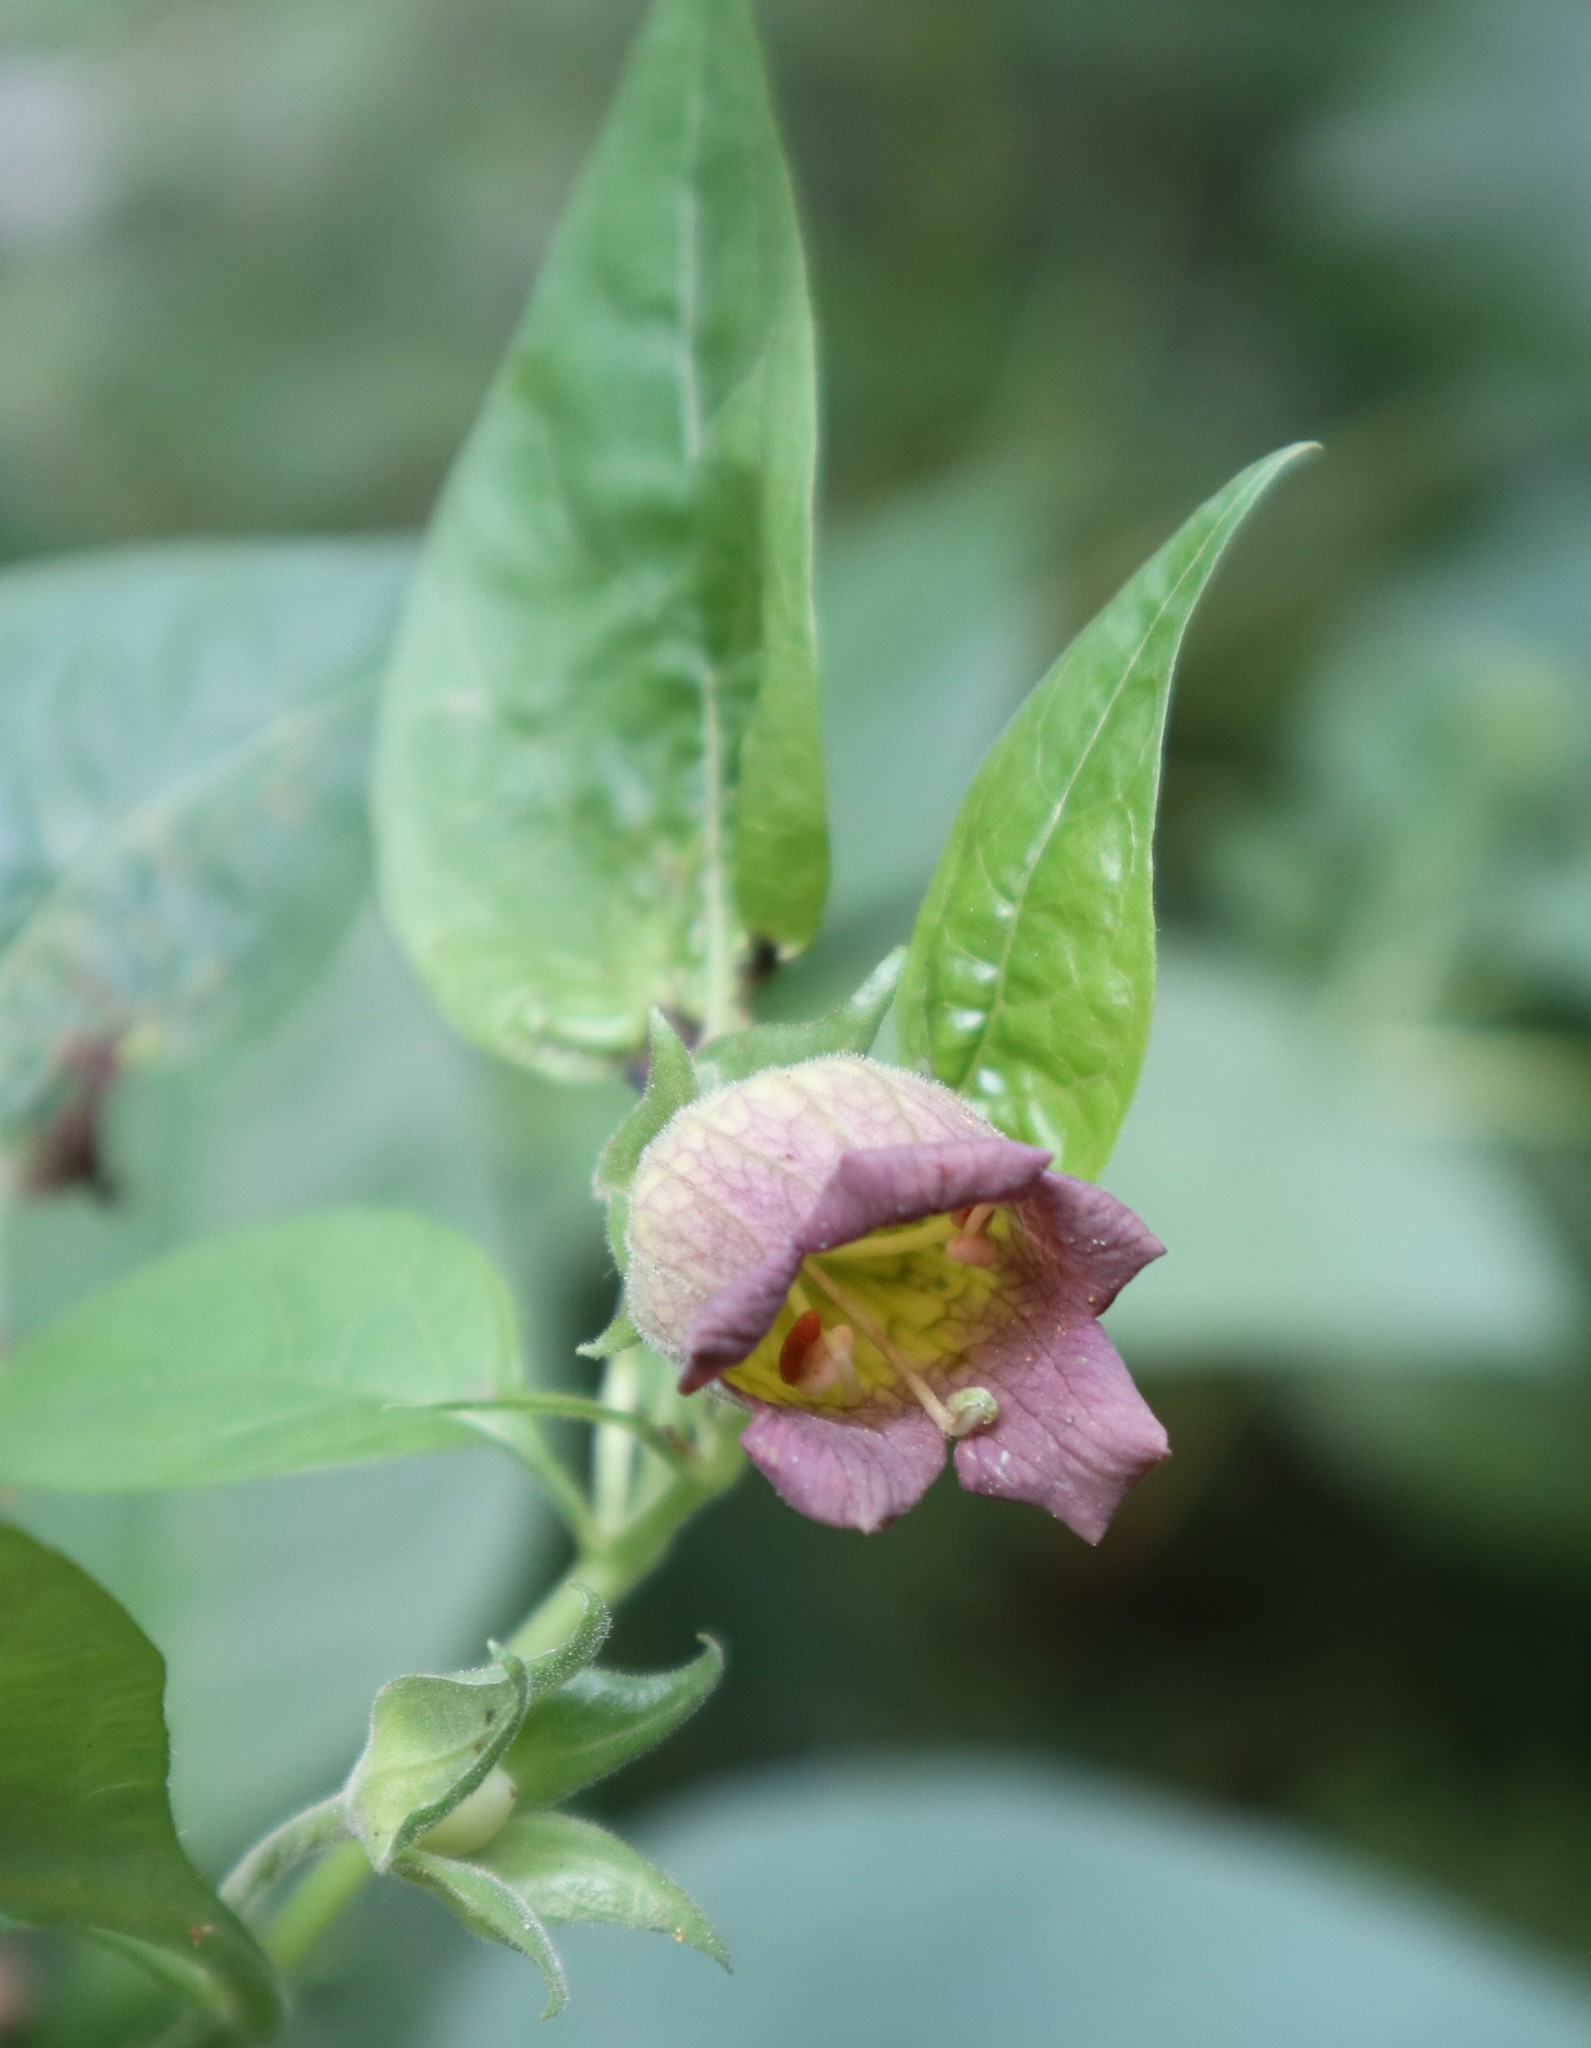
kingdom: Plantae
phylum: Tracheophyta
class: Magnoliopsida
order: Solanales
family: Solanaceae
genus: Atropa
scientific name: Atropa belladonna
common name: Deadly nightshade
